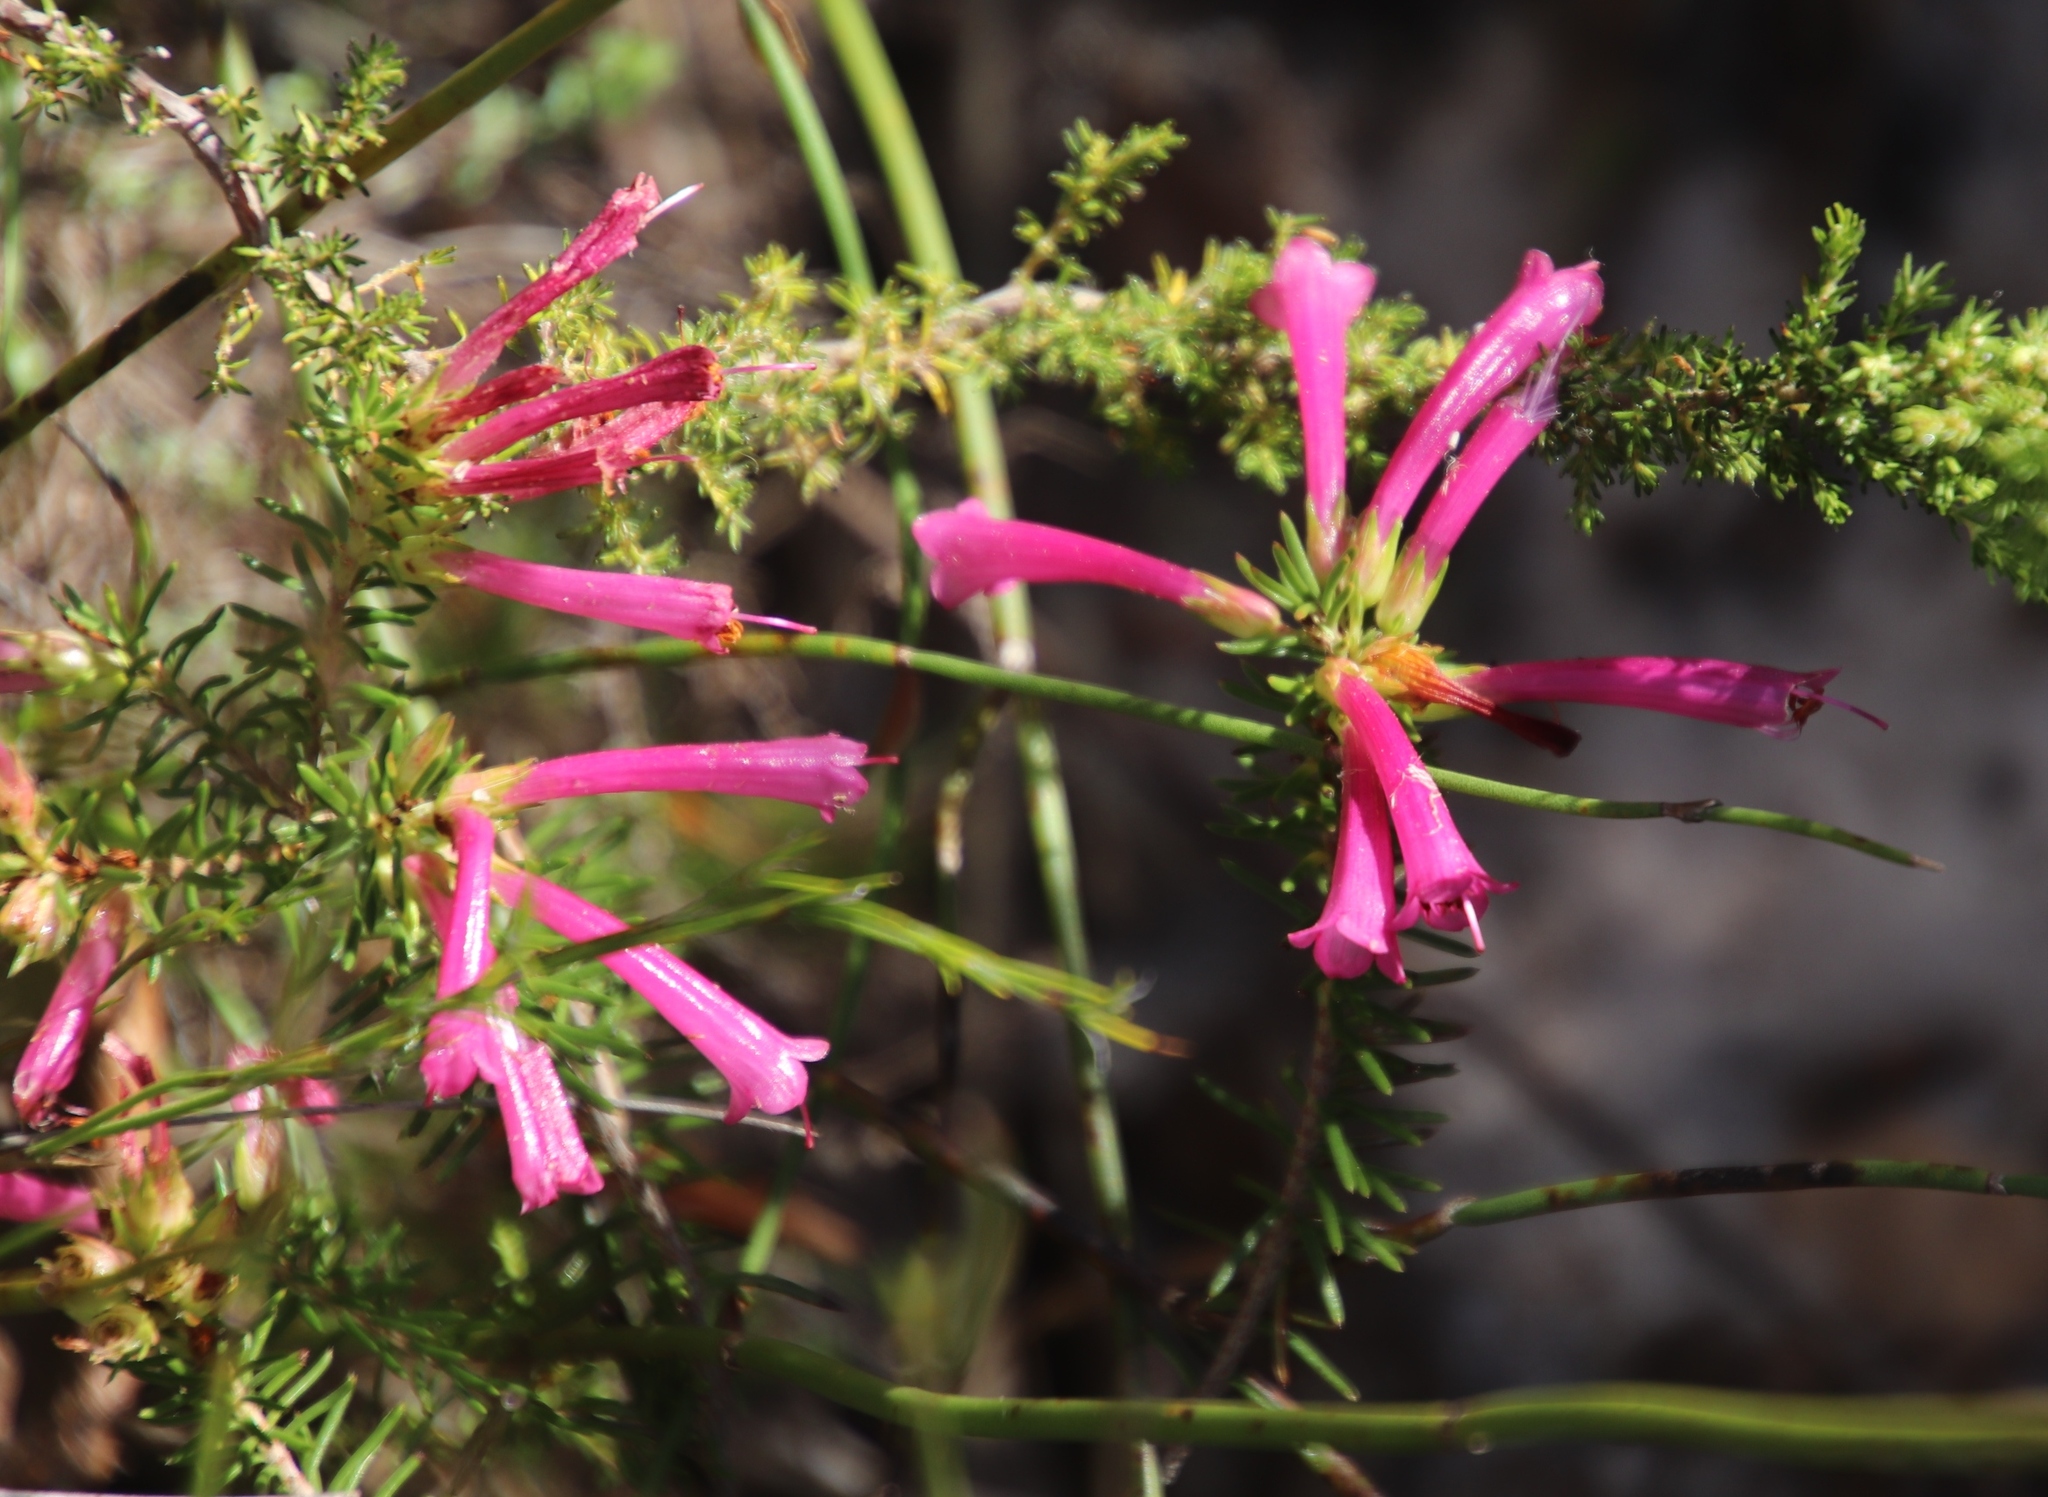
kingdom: Plantae
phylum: Tracheophyta
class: Magnoliopsida
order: Ericales
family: Ericaceae
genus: Erica
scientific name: Erica abietina
